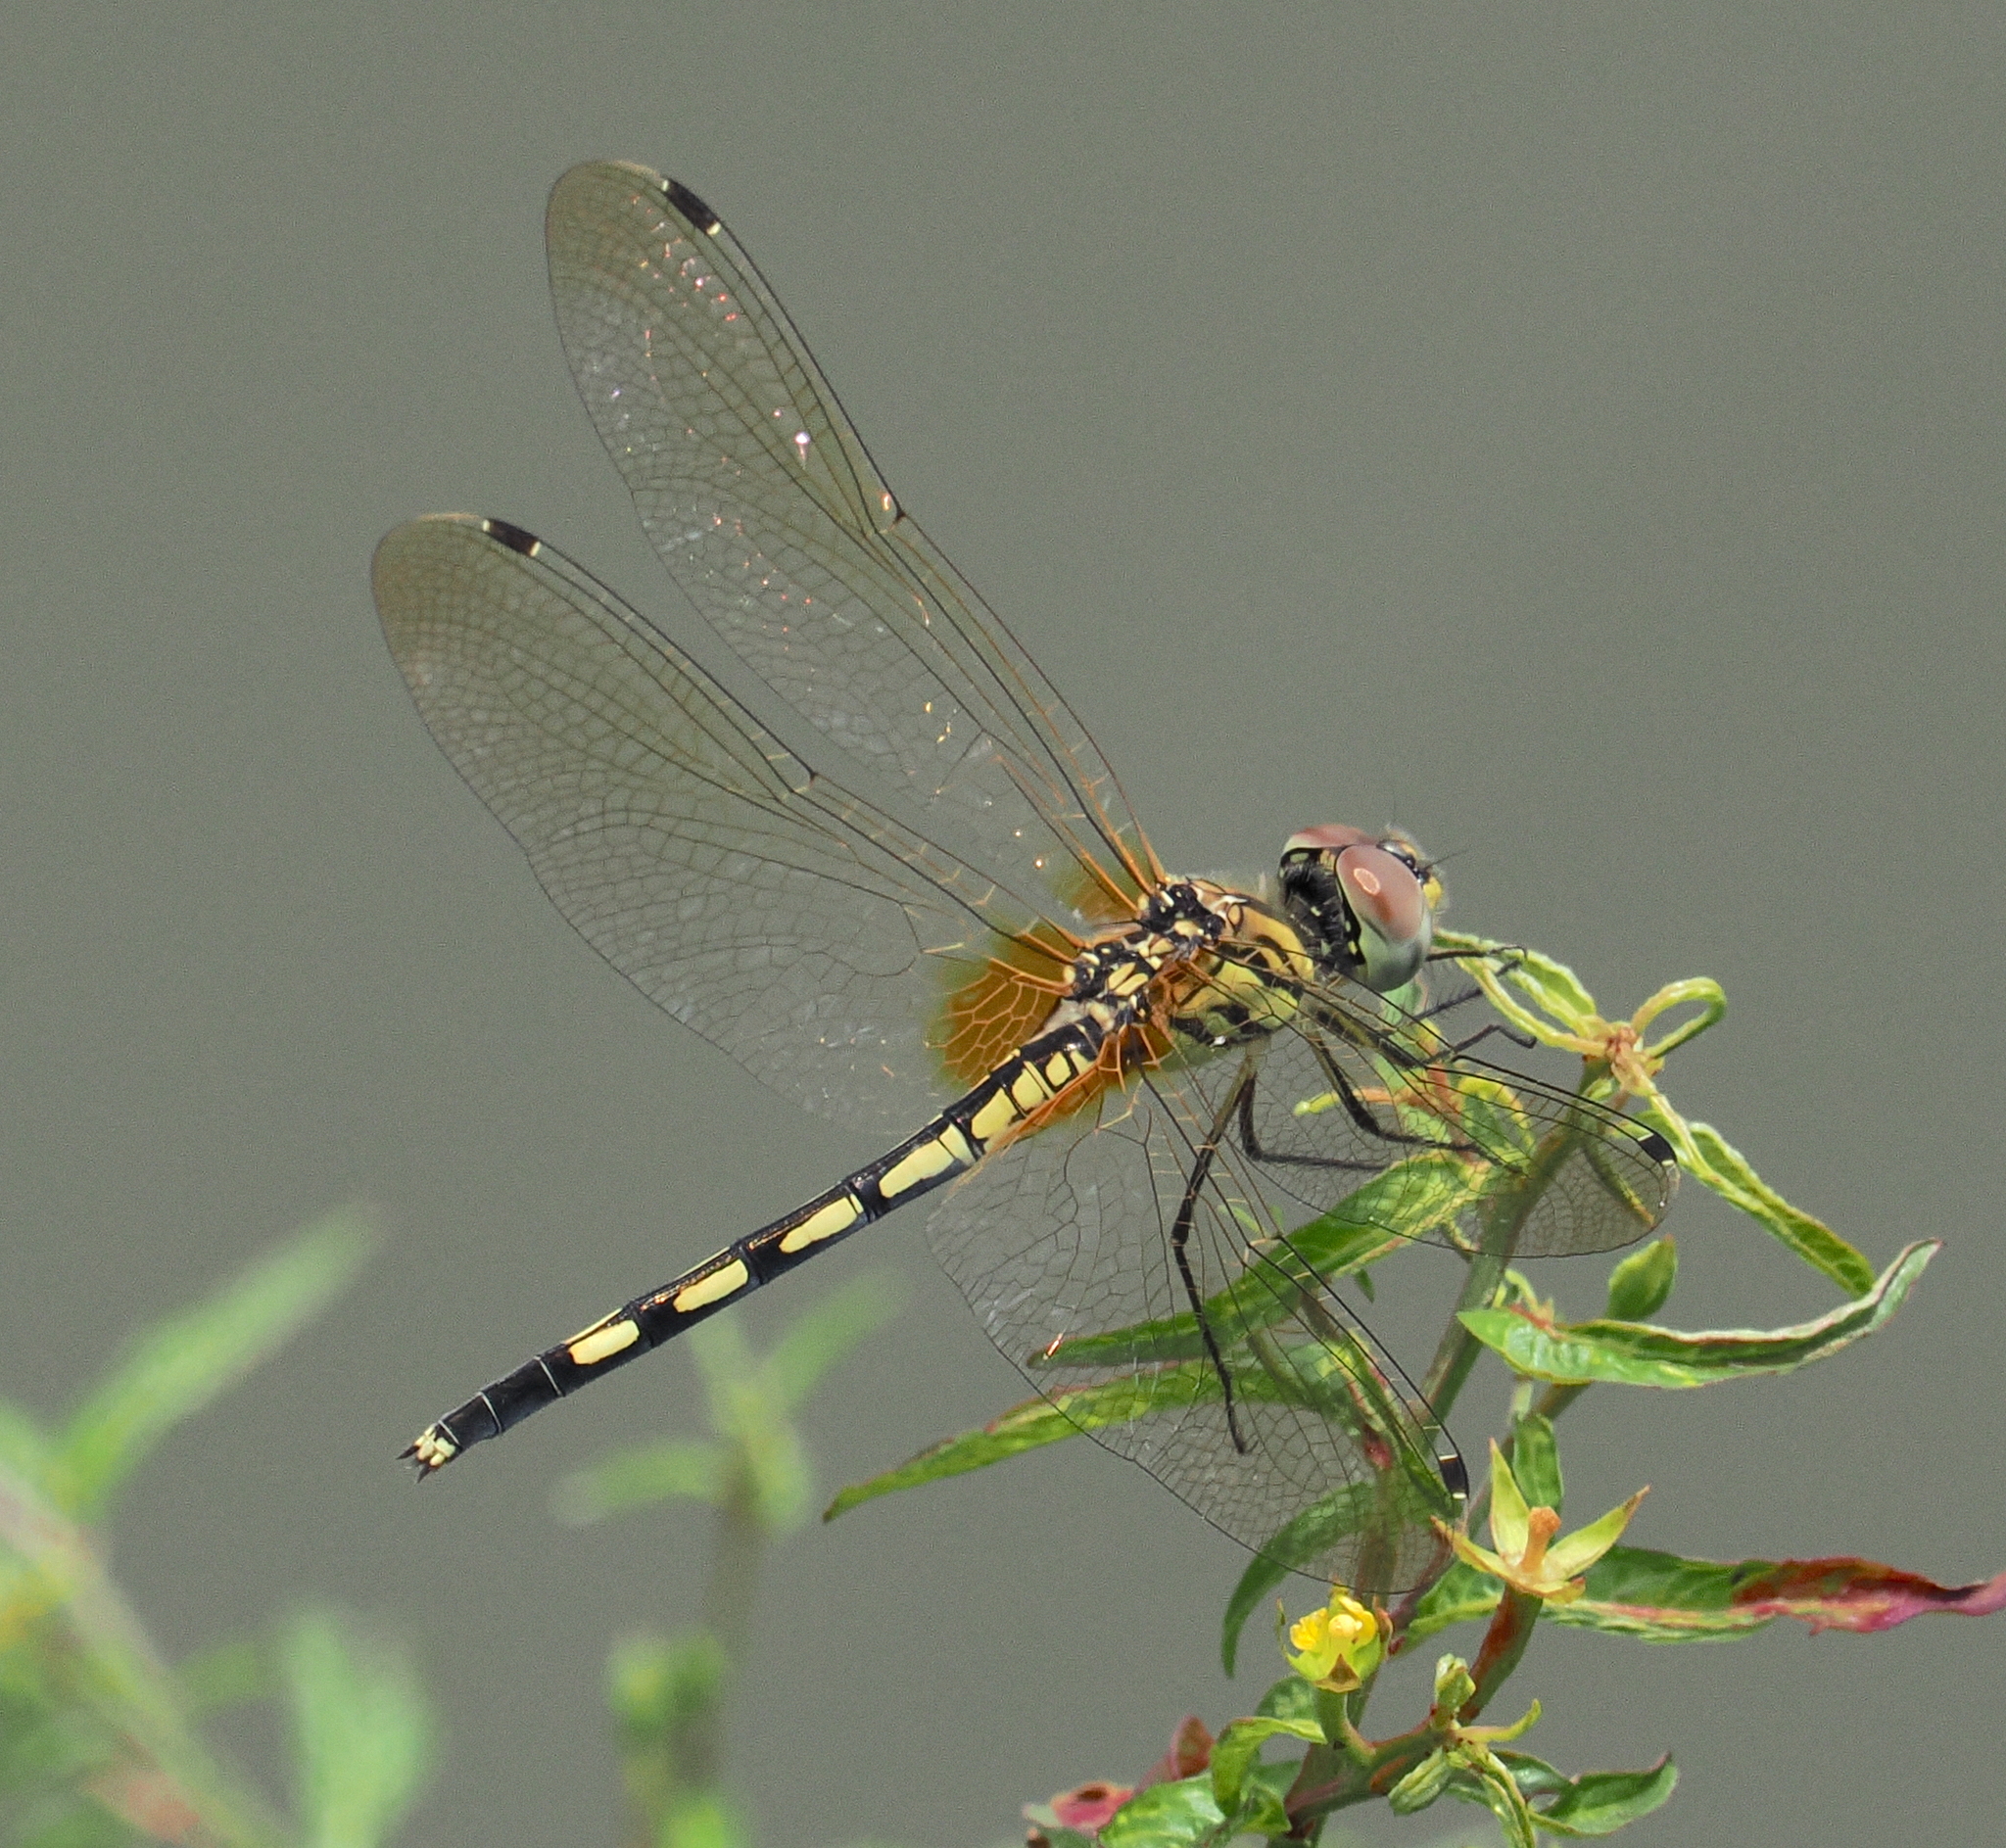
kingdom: Animalia
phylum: Arthropoda
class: Insecta
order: Odonata
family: Libellulidae
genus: Trithemis
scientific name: Trithemis pallidinervis
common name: Dancing dropwing
